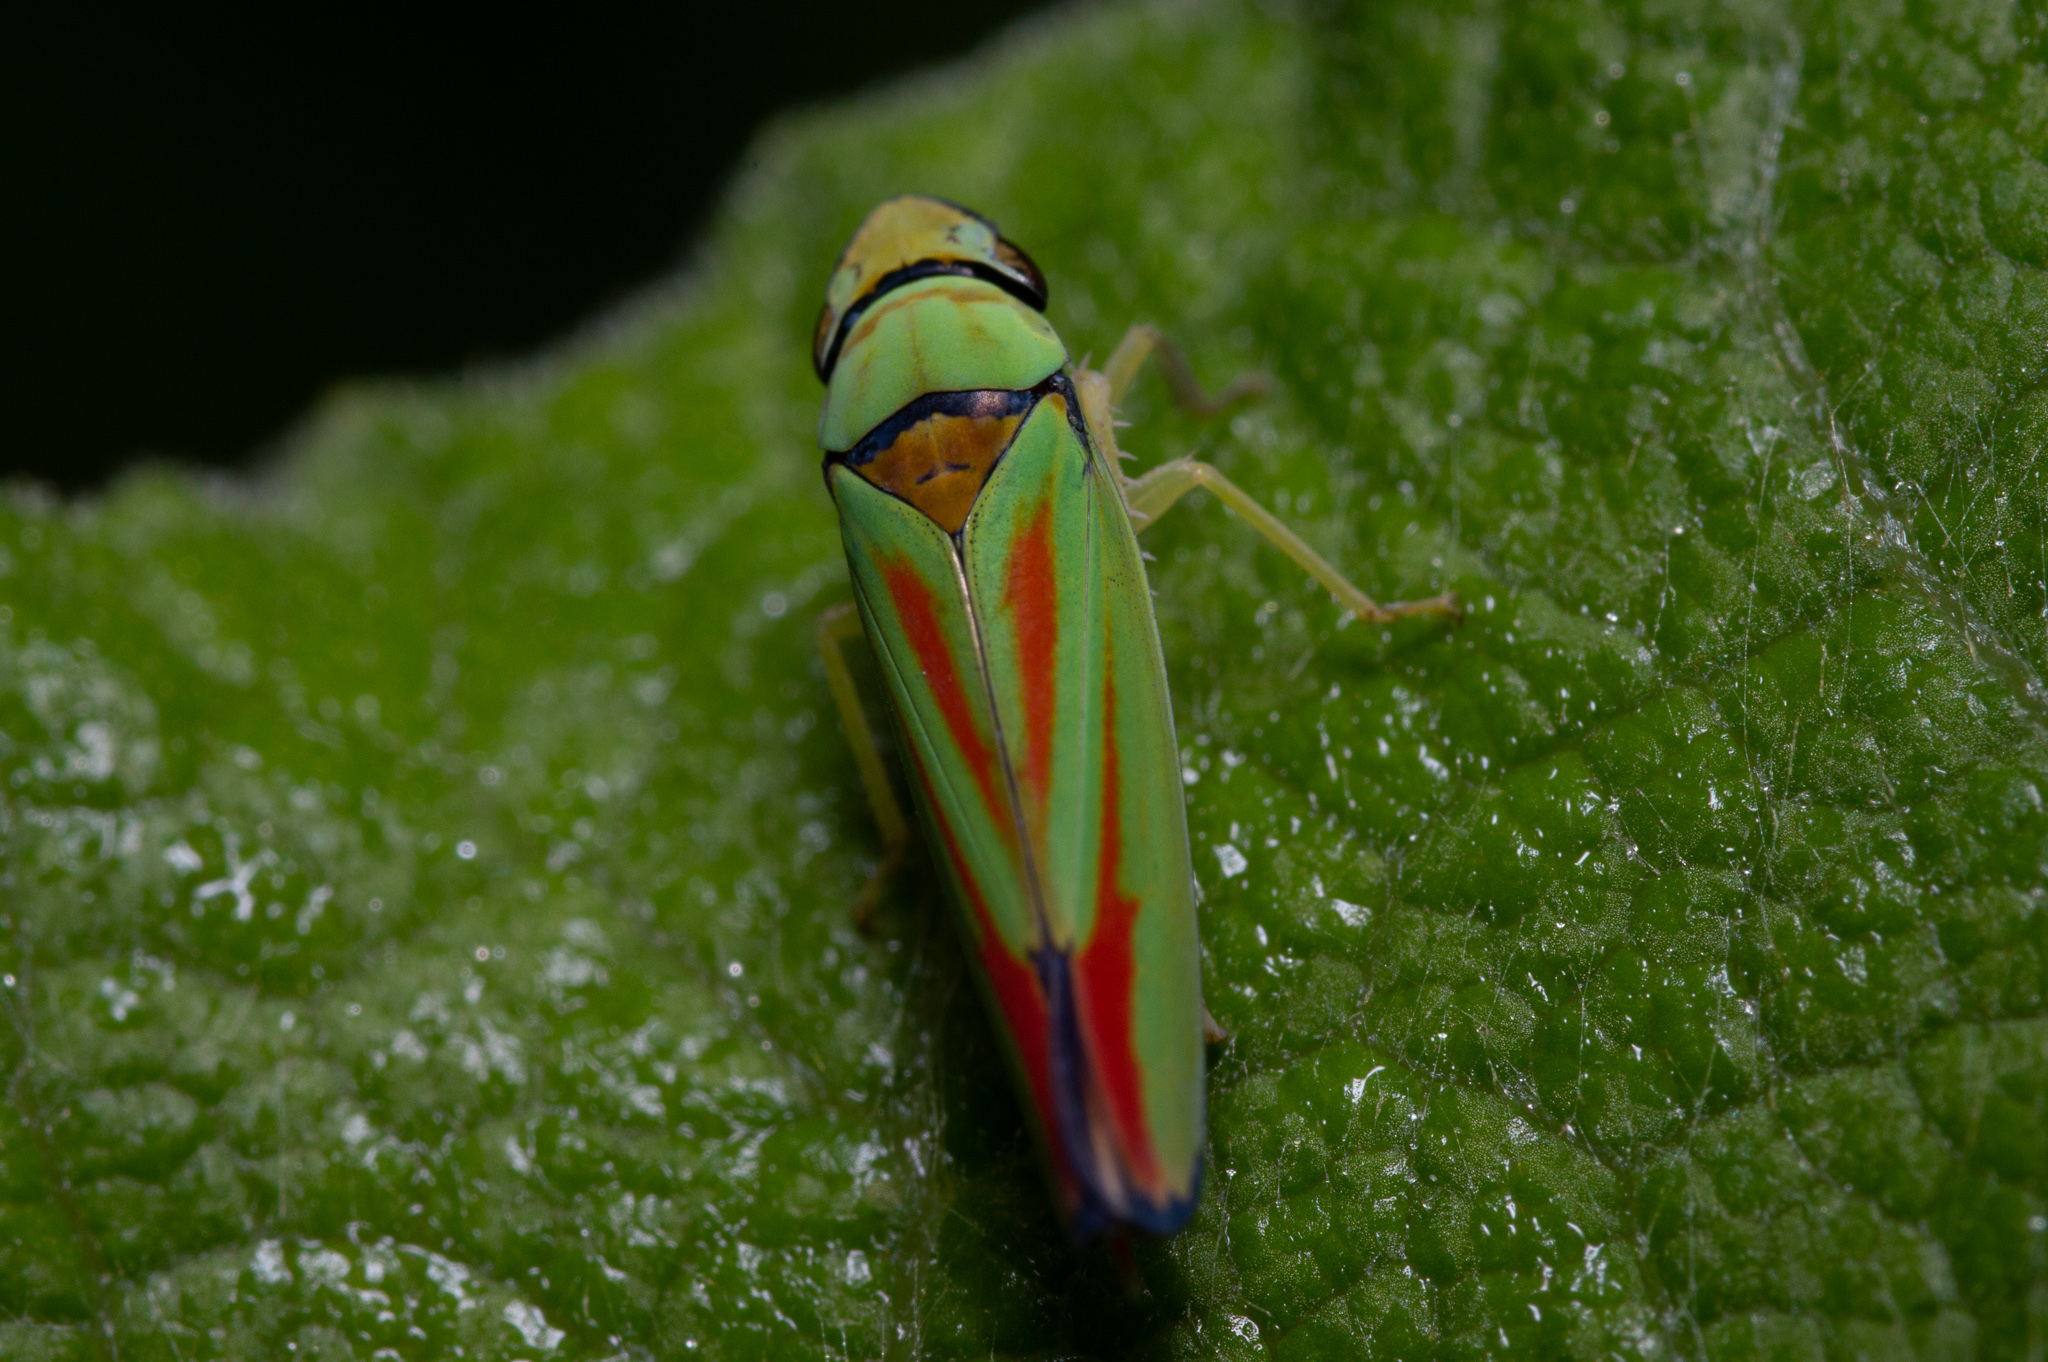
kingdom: Animalia
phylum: Arthropoda
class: Insecta
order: Hemiptera
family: Cicadellidae
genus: Graphocephala
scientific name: Graphocephala fennahi
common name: Rhododendron leafhopper
